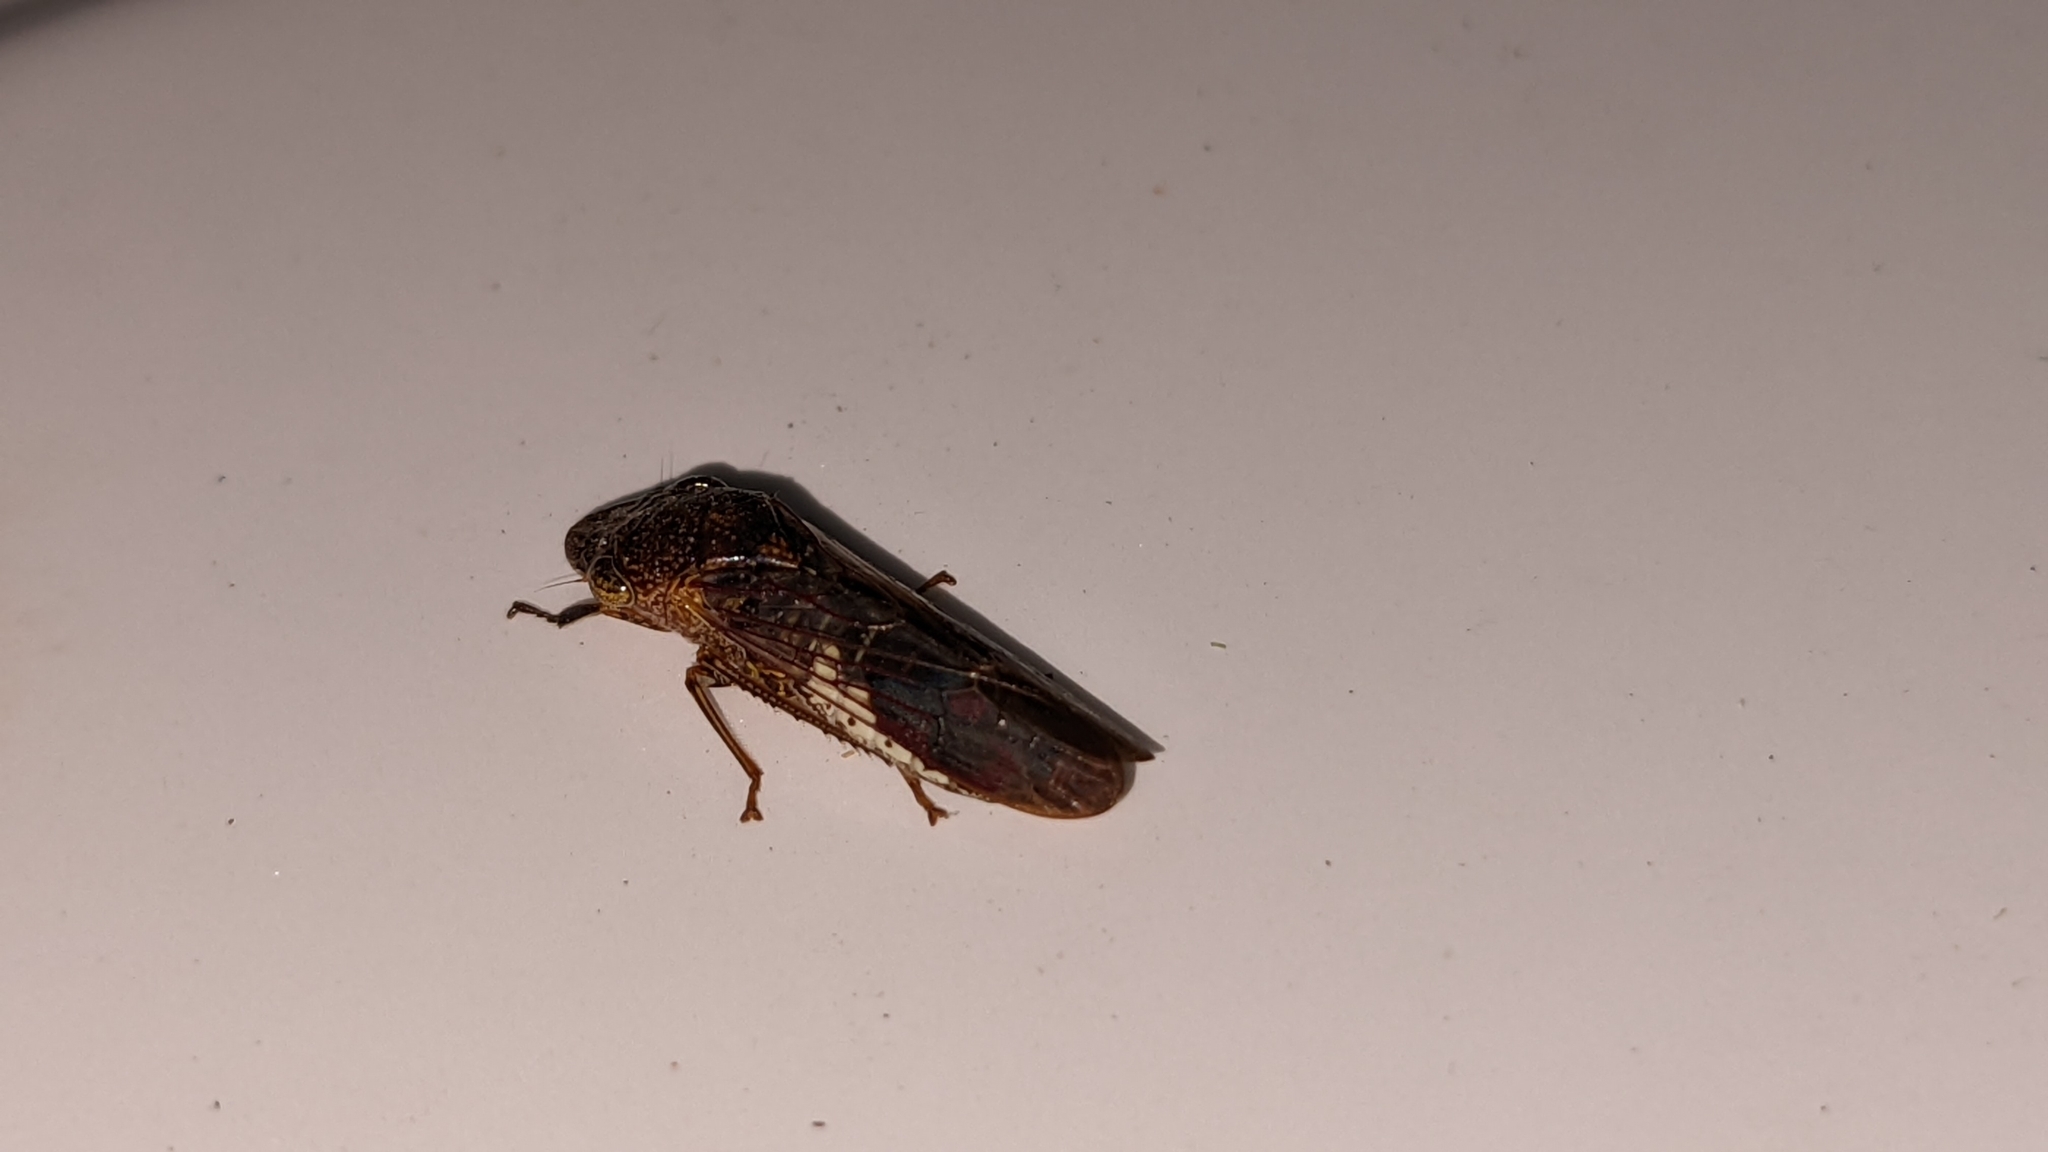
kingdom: Animalia
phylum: Arthropoda
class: Insecta
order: Hemiptera
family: Cicadellidae
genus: Homalodisca
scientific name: Homalodisca vitripennis
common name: Glassy-winged sharpshooter
